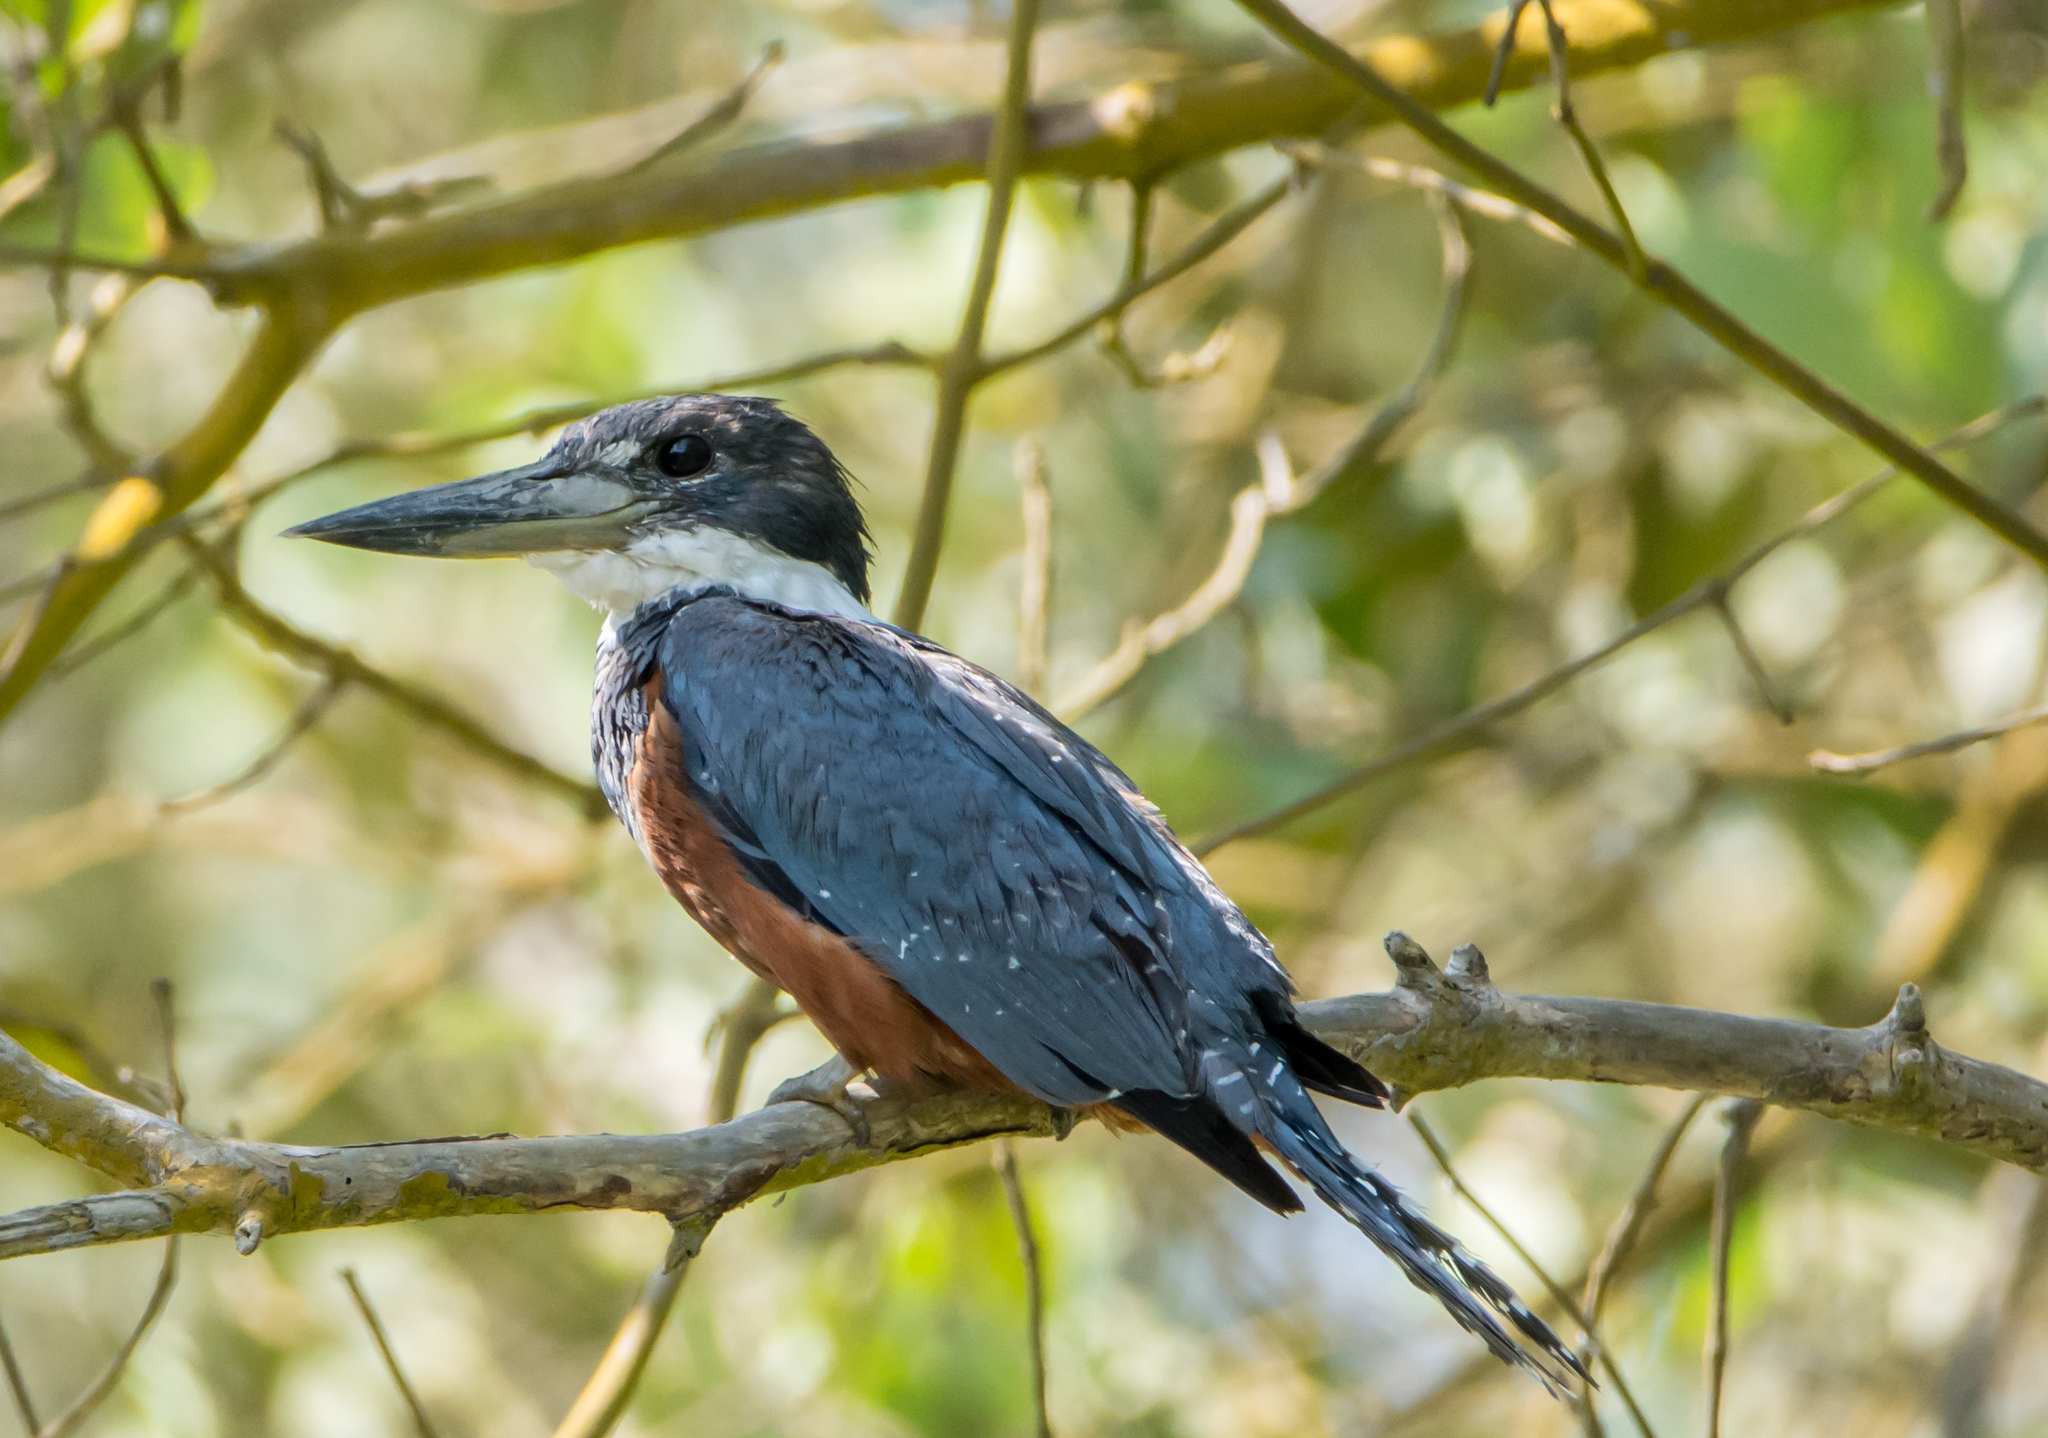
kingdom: Animalia
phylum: Chordata
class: Aves
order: Coraciiformes
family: Alcedinidae
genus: Megaceryle
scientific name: Megaceryle torquata
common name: Ringed kingfisher
